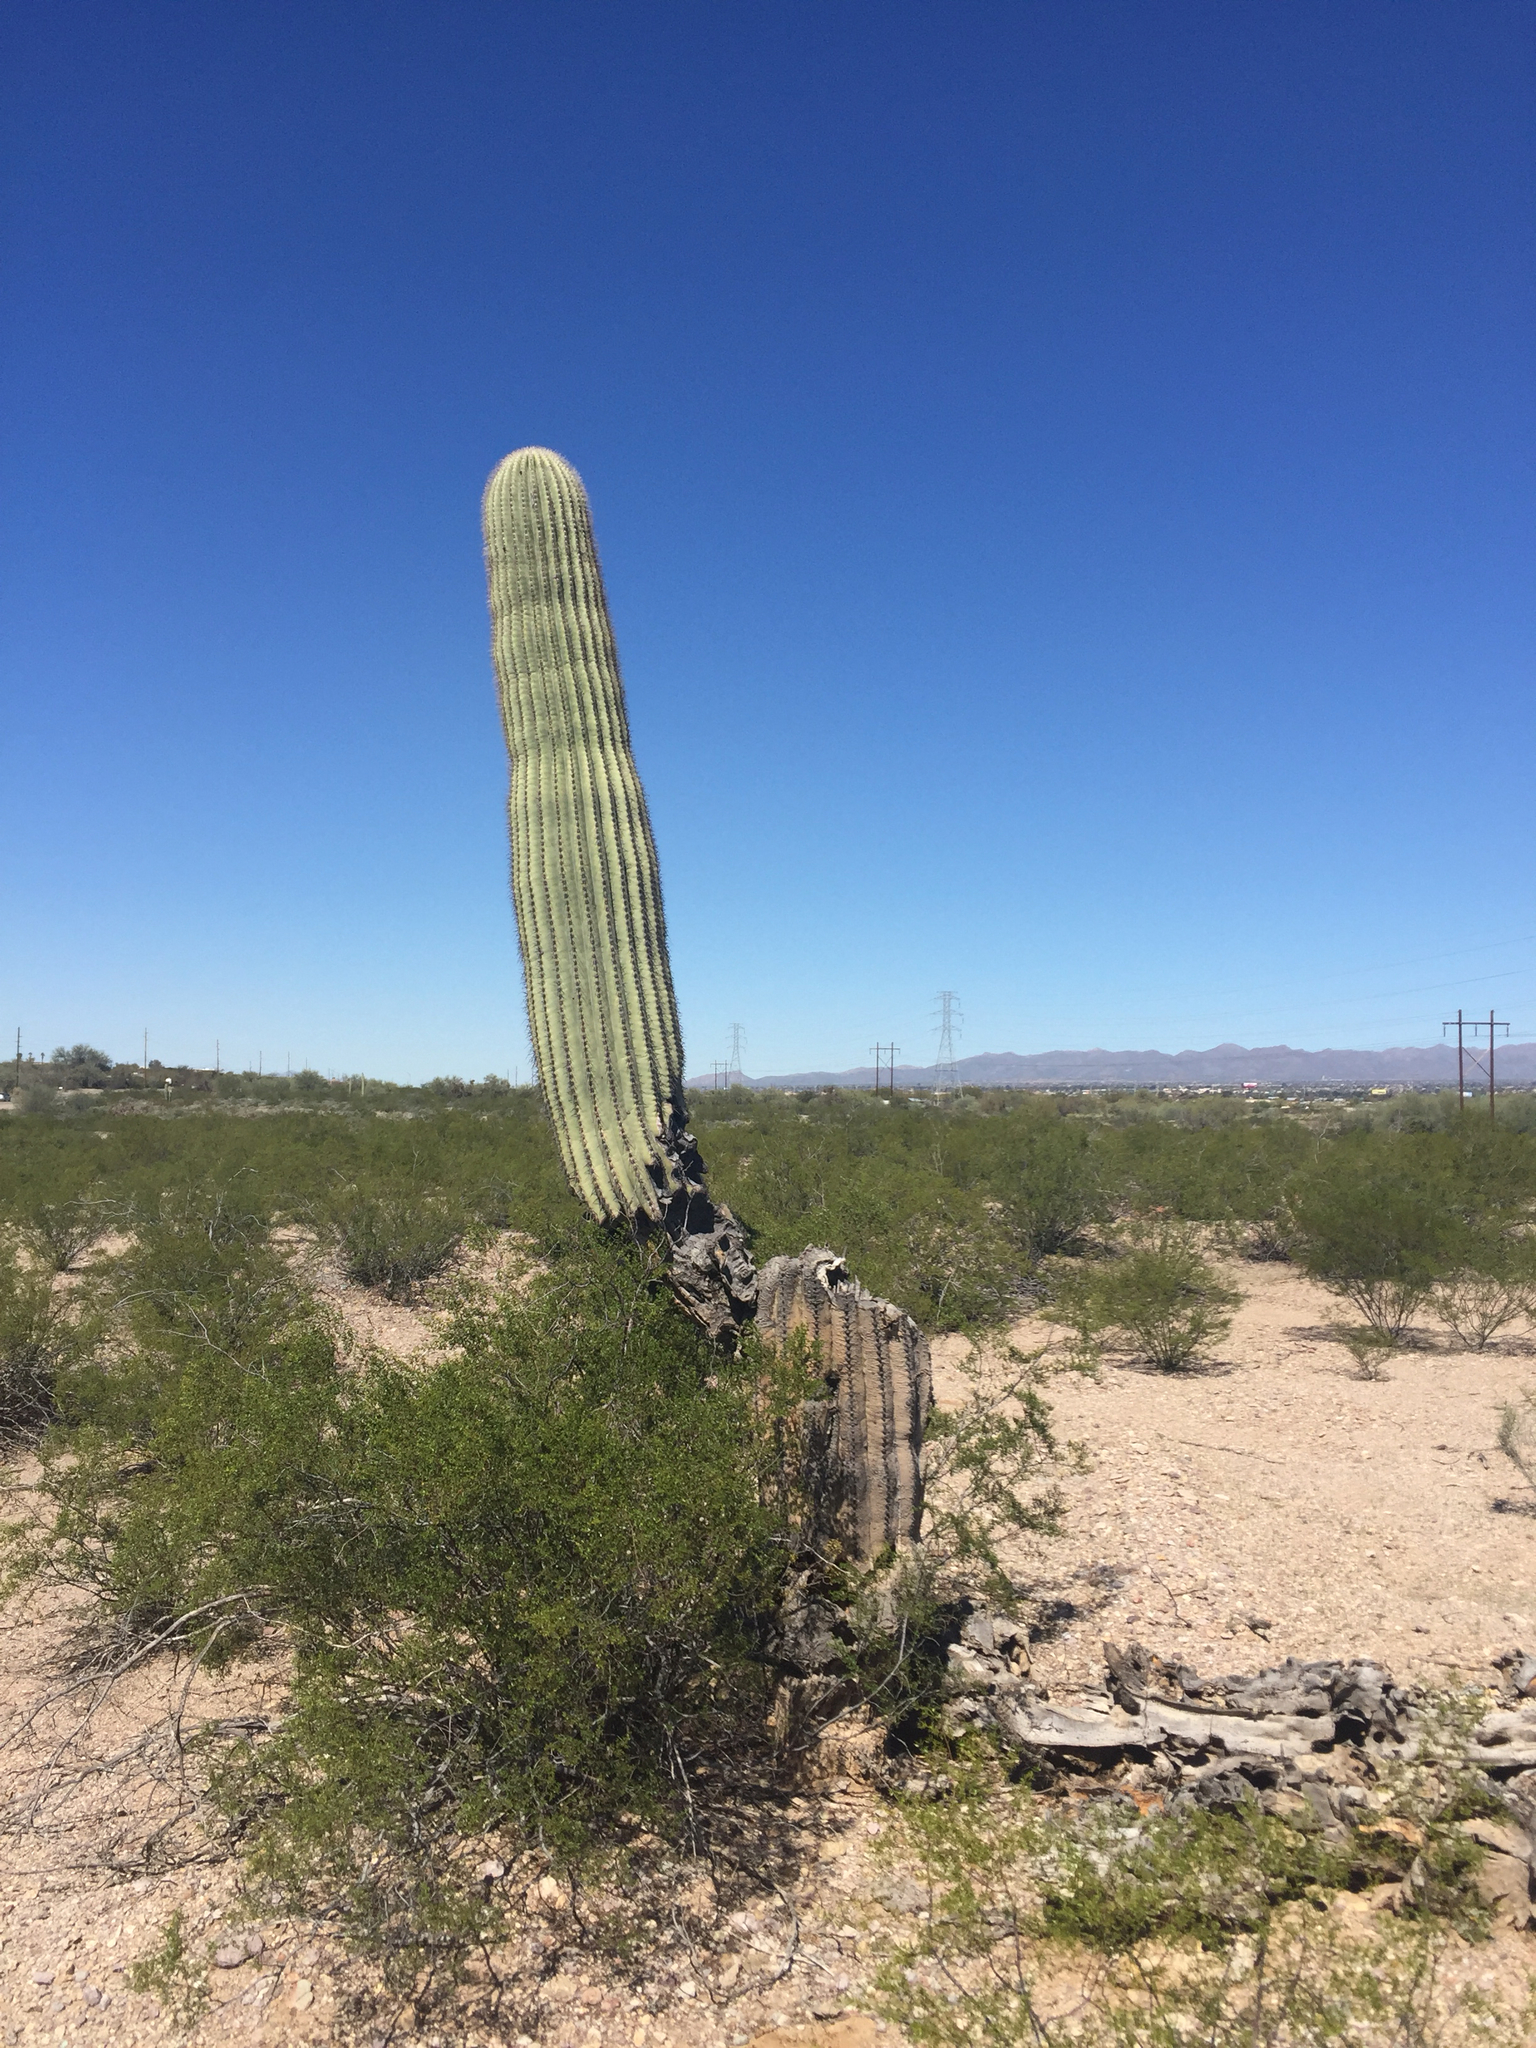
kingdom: Plantae
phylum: Tracheophyta
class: Magnoliopsida
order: Caryophyllales
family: Cactaceae
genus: Carnegiea
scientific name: Carnegiea gigantea
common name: Saguaro
